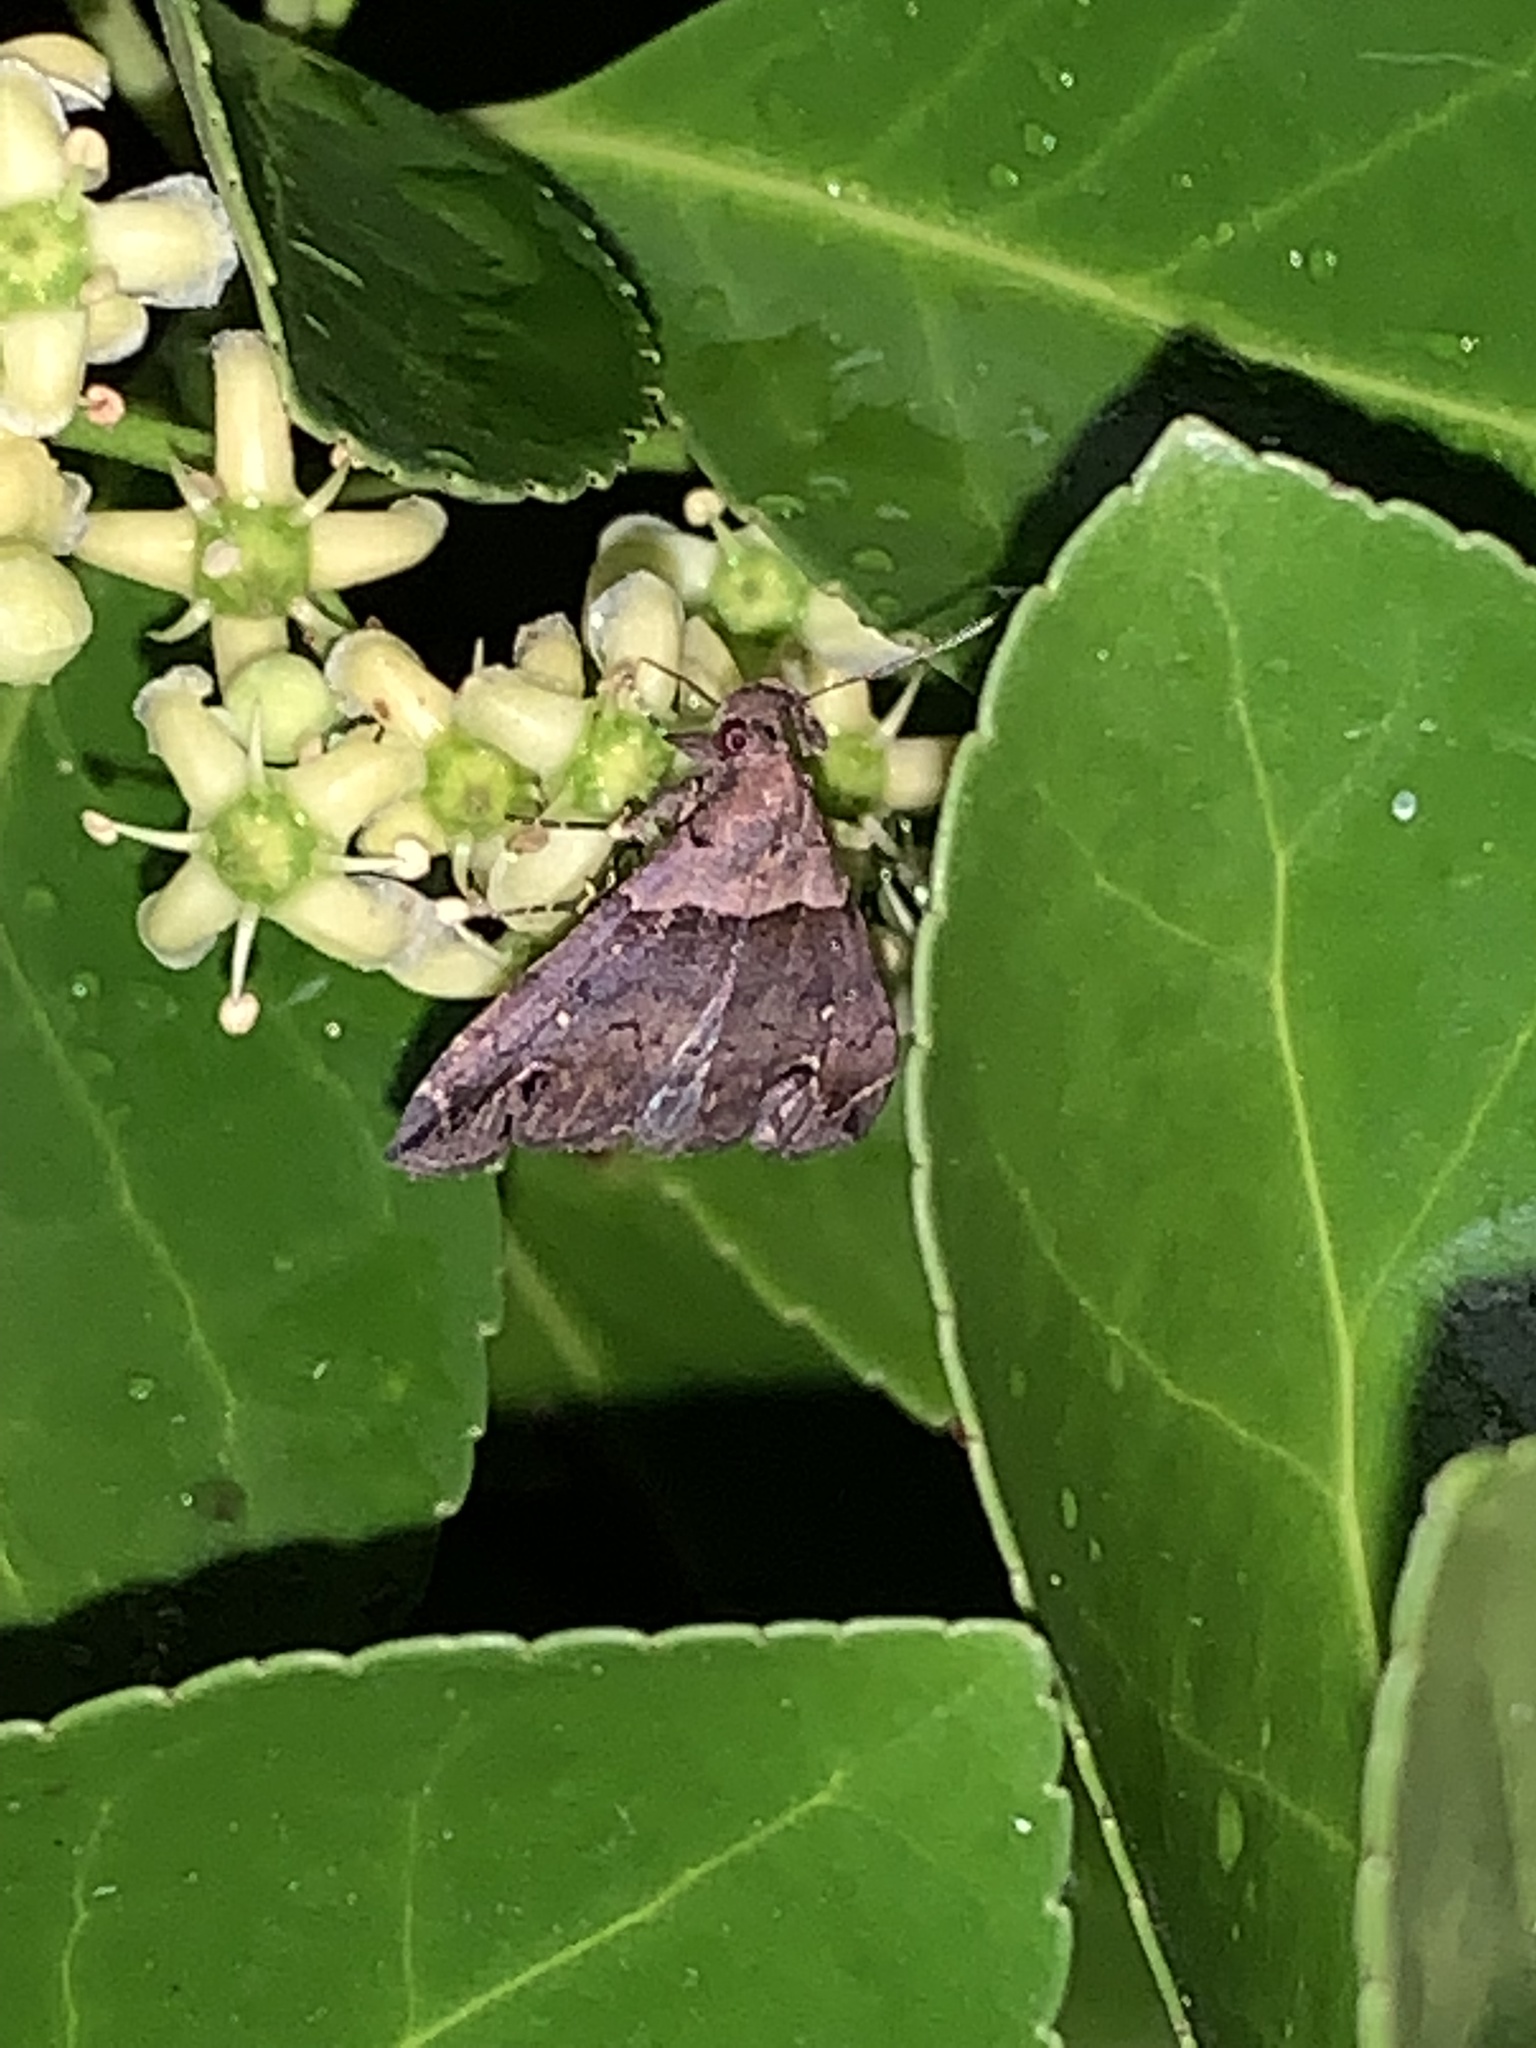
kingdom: Animalia
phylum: Arthropoda
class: Insecta
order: Lepidoptera
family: Erebidae
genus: Lascoria
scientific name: Lascoria ambigualis
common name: Ambiguous moth
